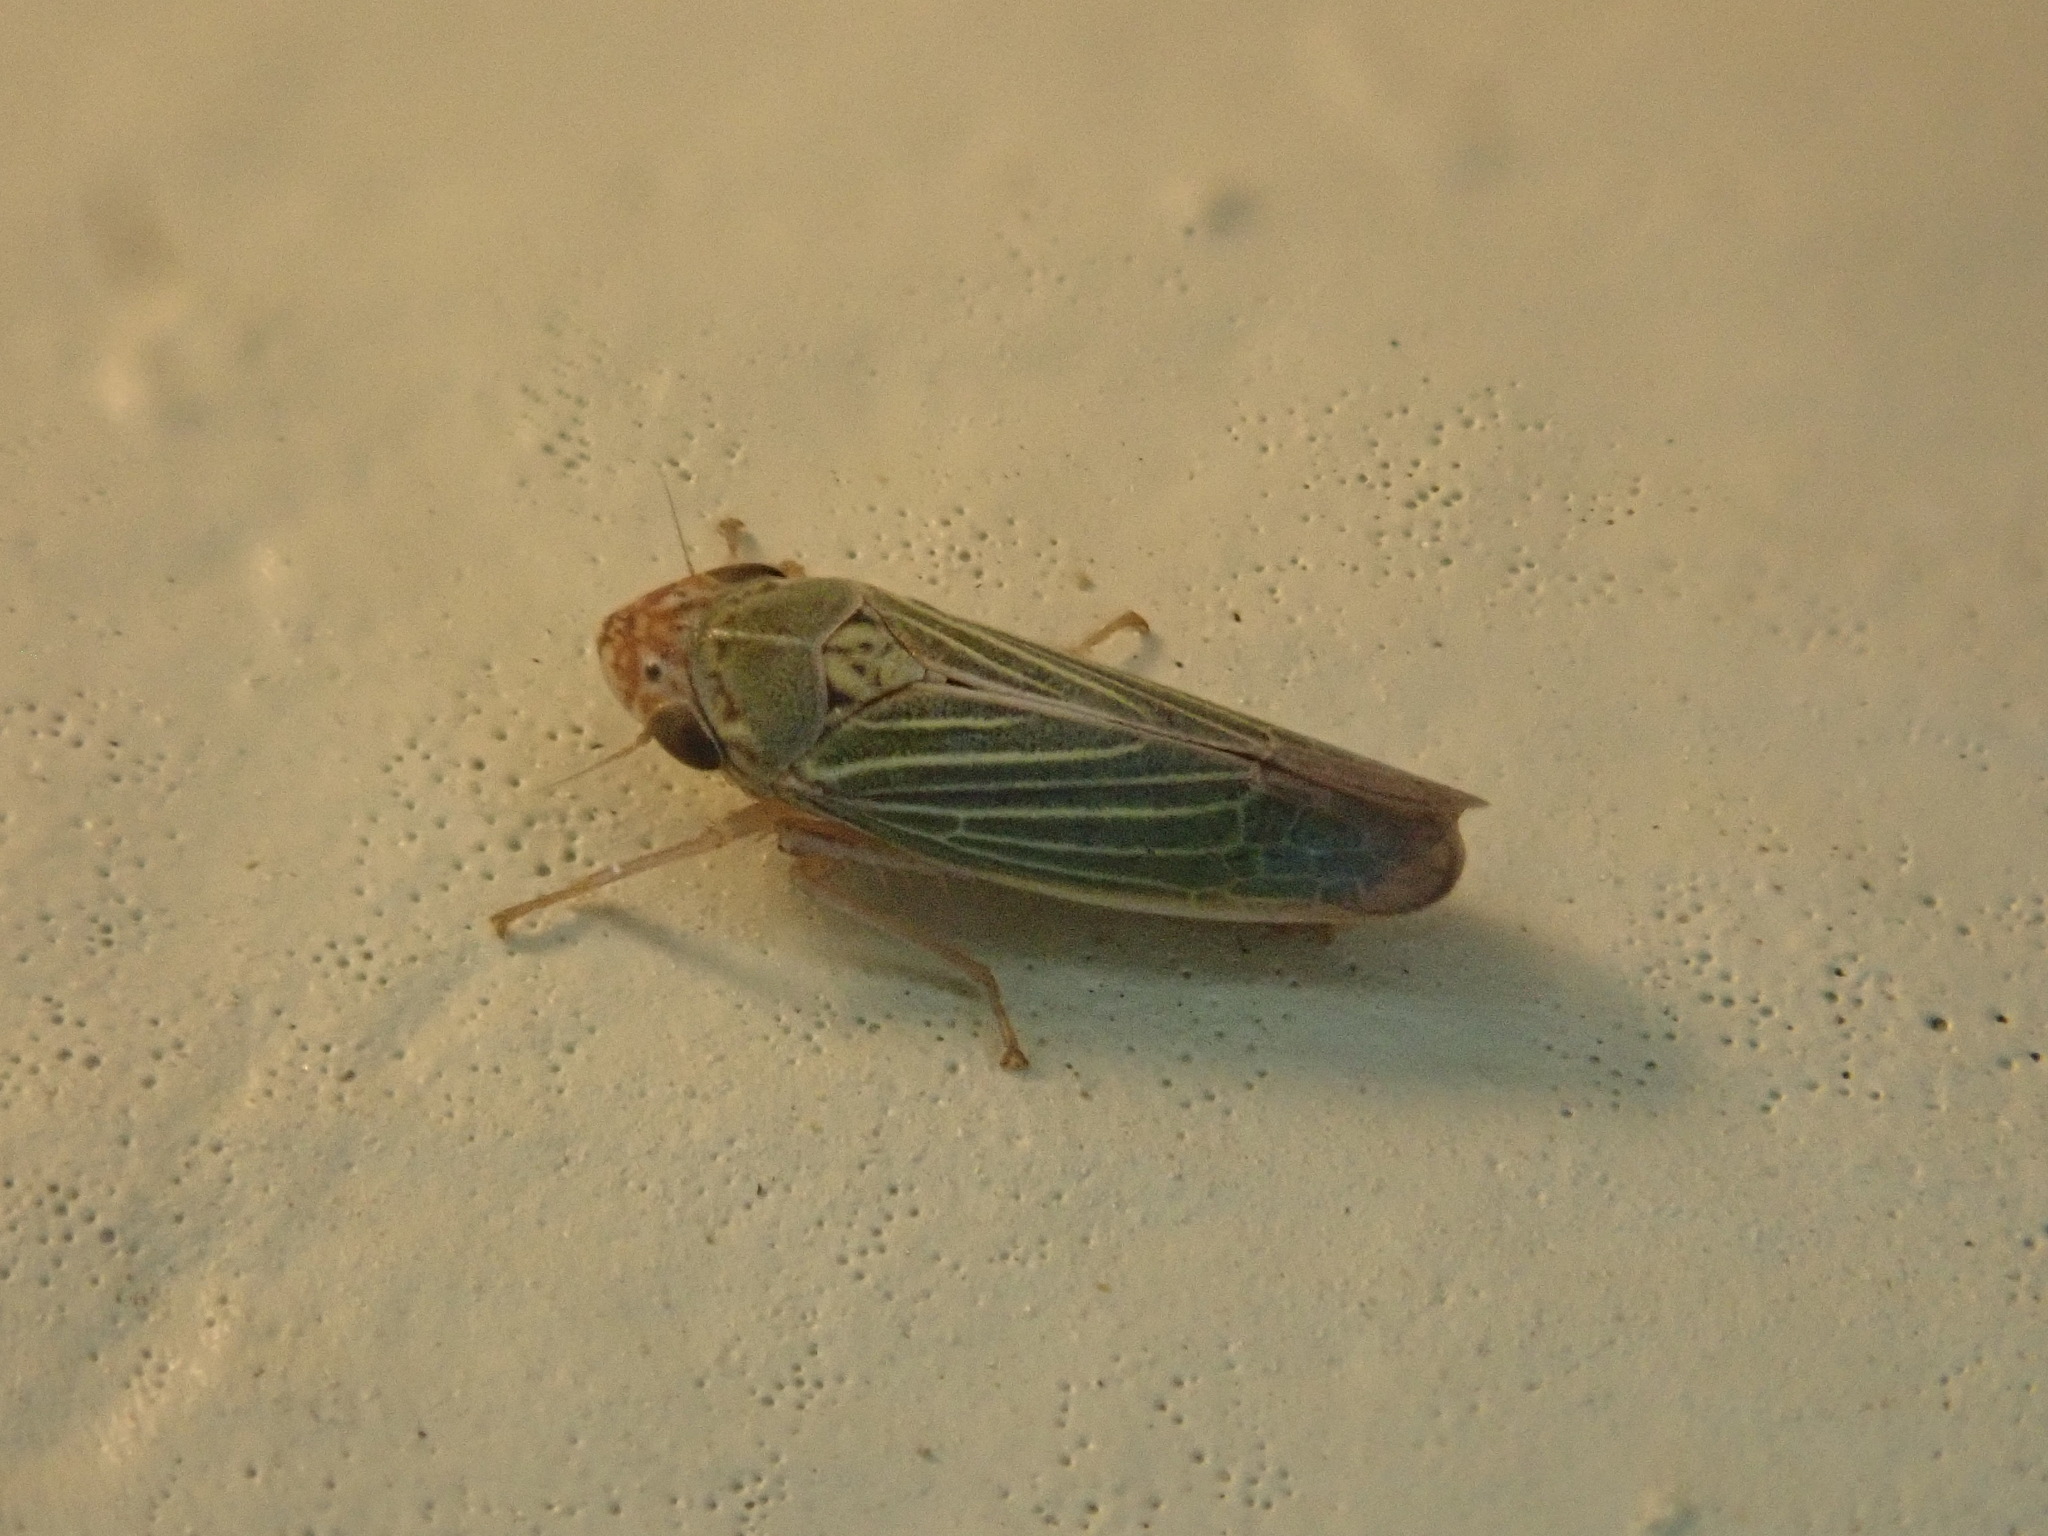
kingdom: Animalia
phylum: Arthropoda
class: Insecta
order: Hemiptera
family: Cicadellidae
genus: Xyphon
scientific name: Xyphon reticulatum
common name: Planthopper
